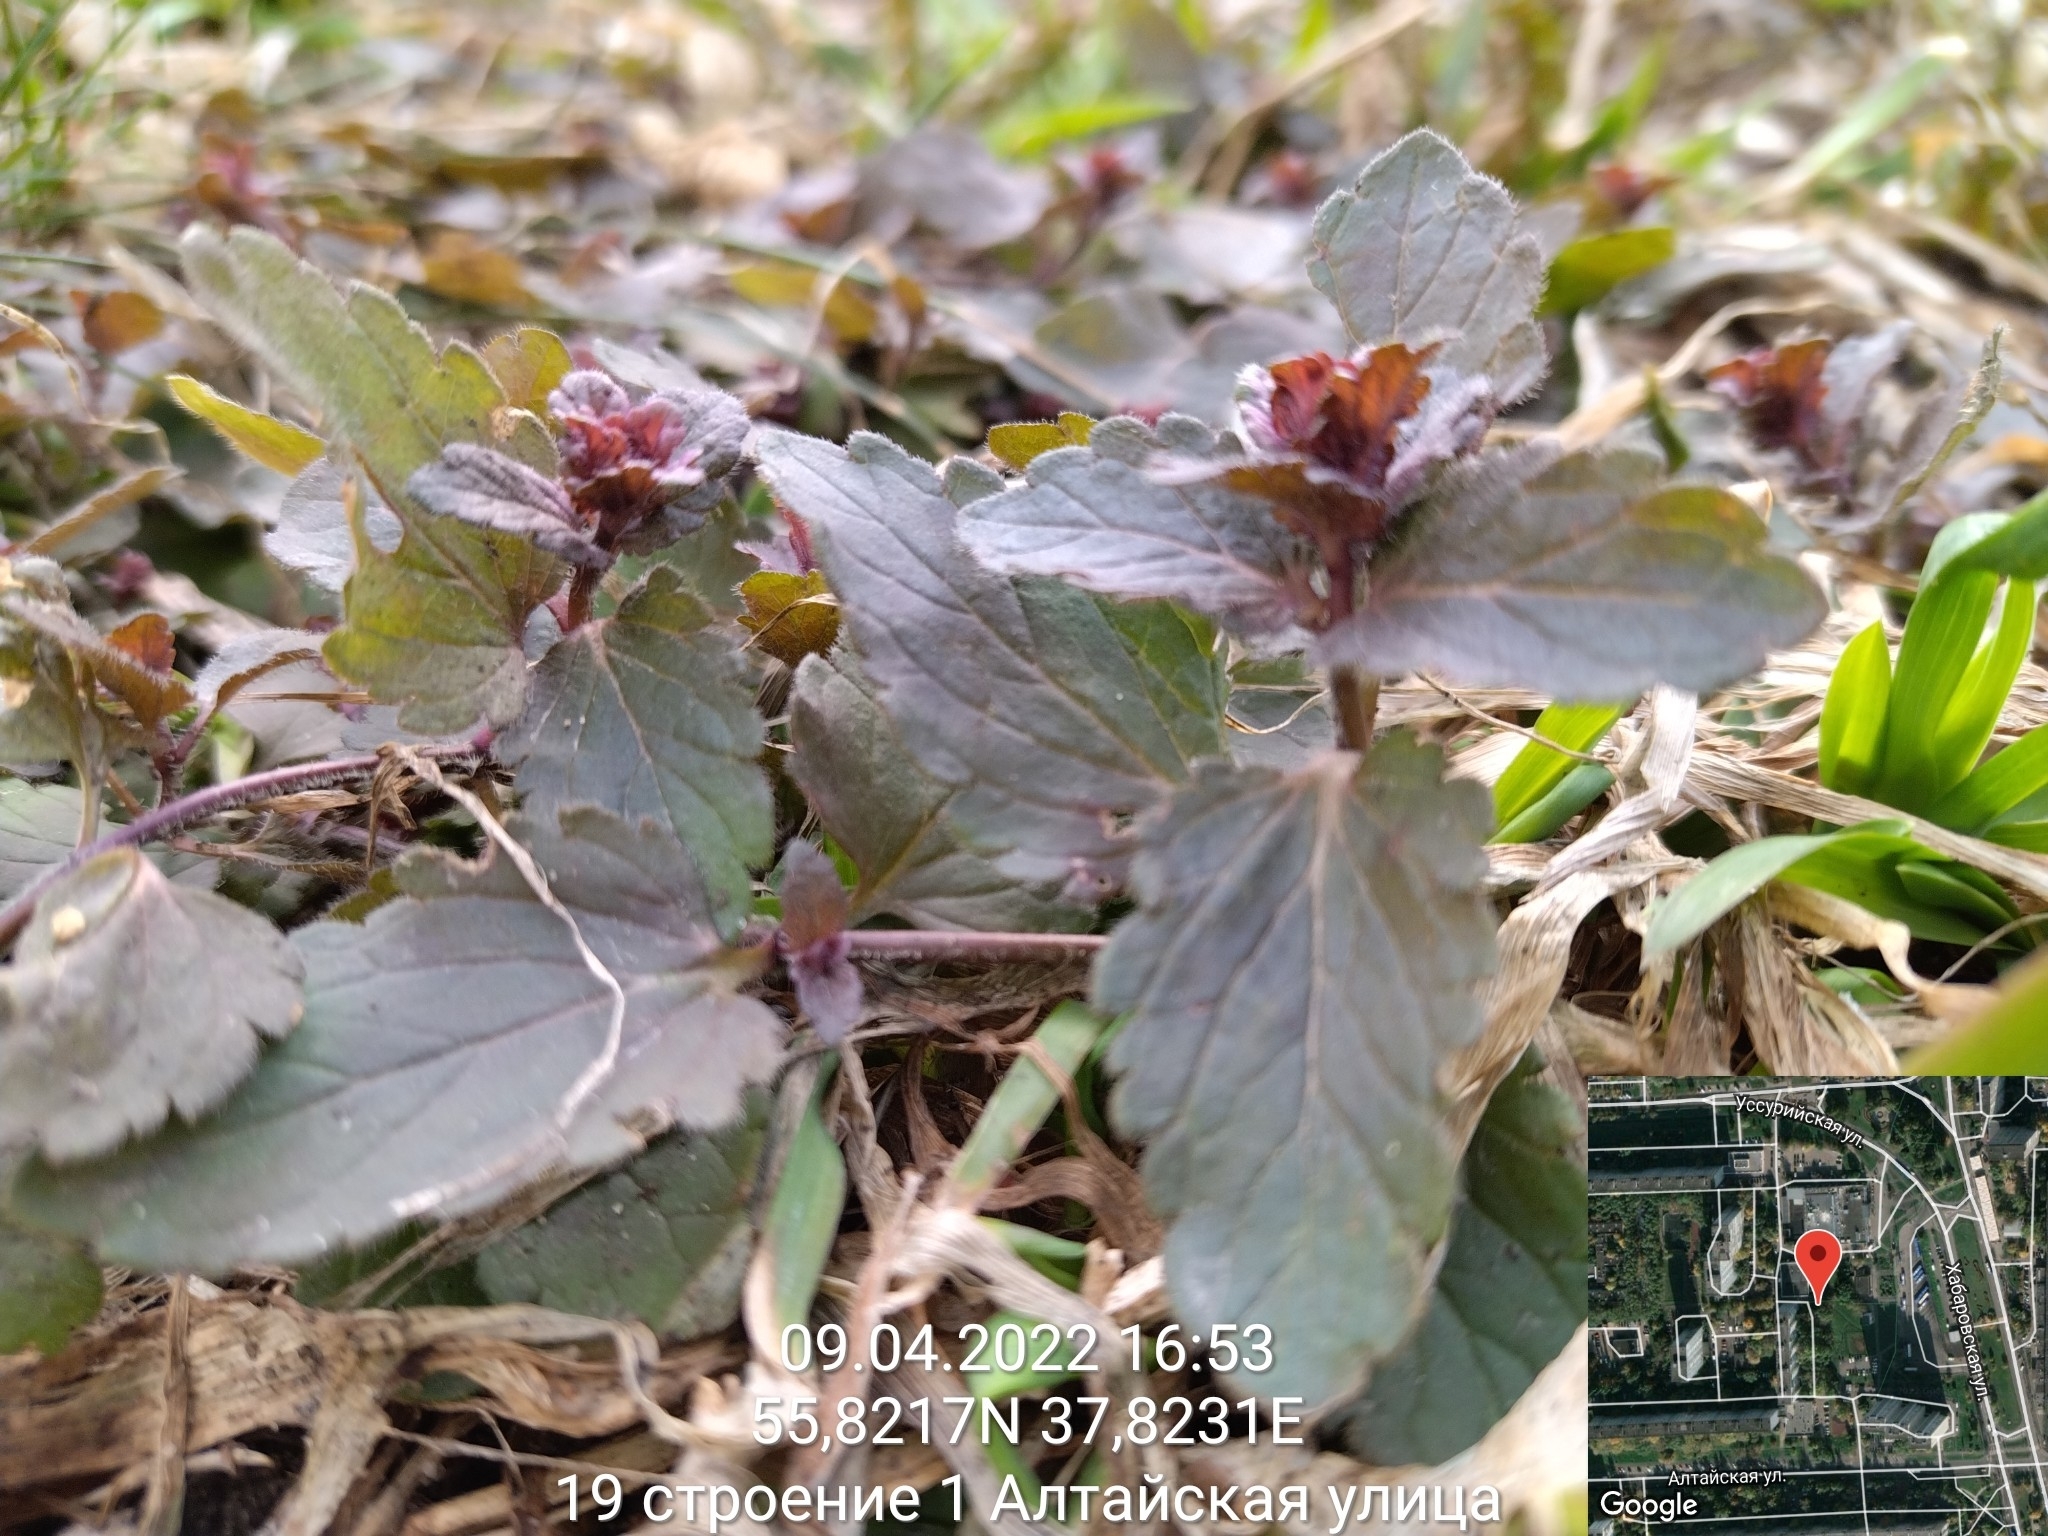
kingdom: Plantae
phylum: Tracheophyta
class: Magnoliopsida
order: Lamiales
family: Plantaginaceae
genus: Veronica
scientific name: Veronica chamaedrys
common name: Germander speedwell
